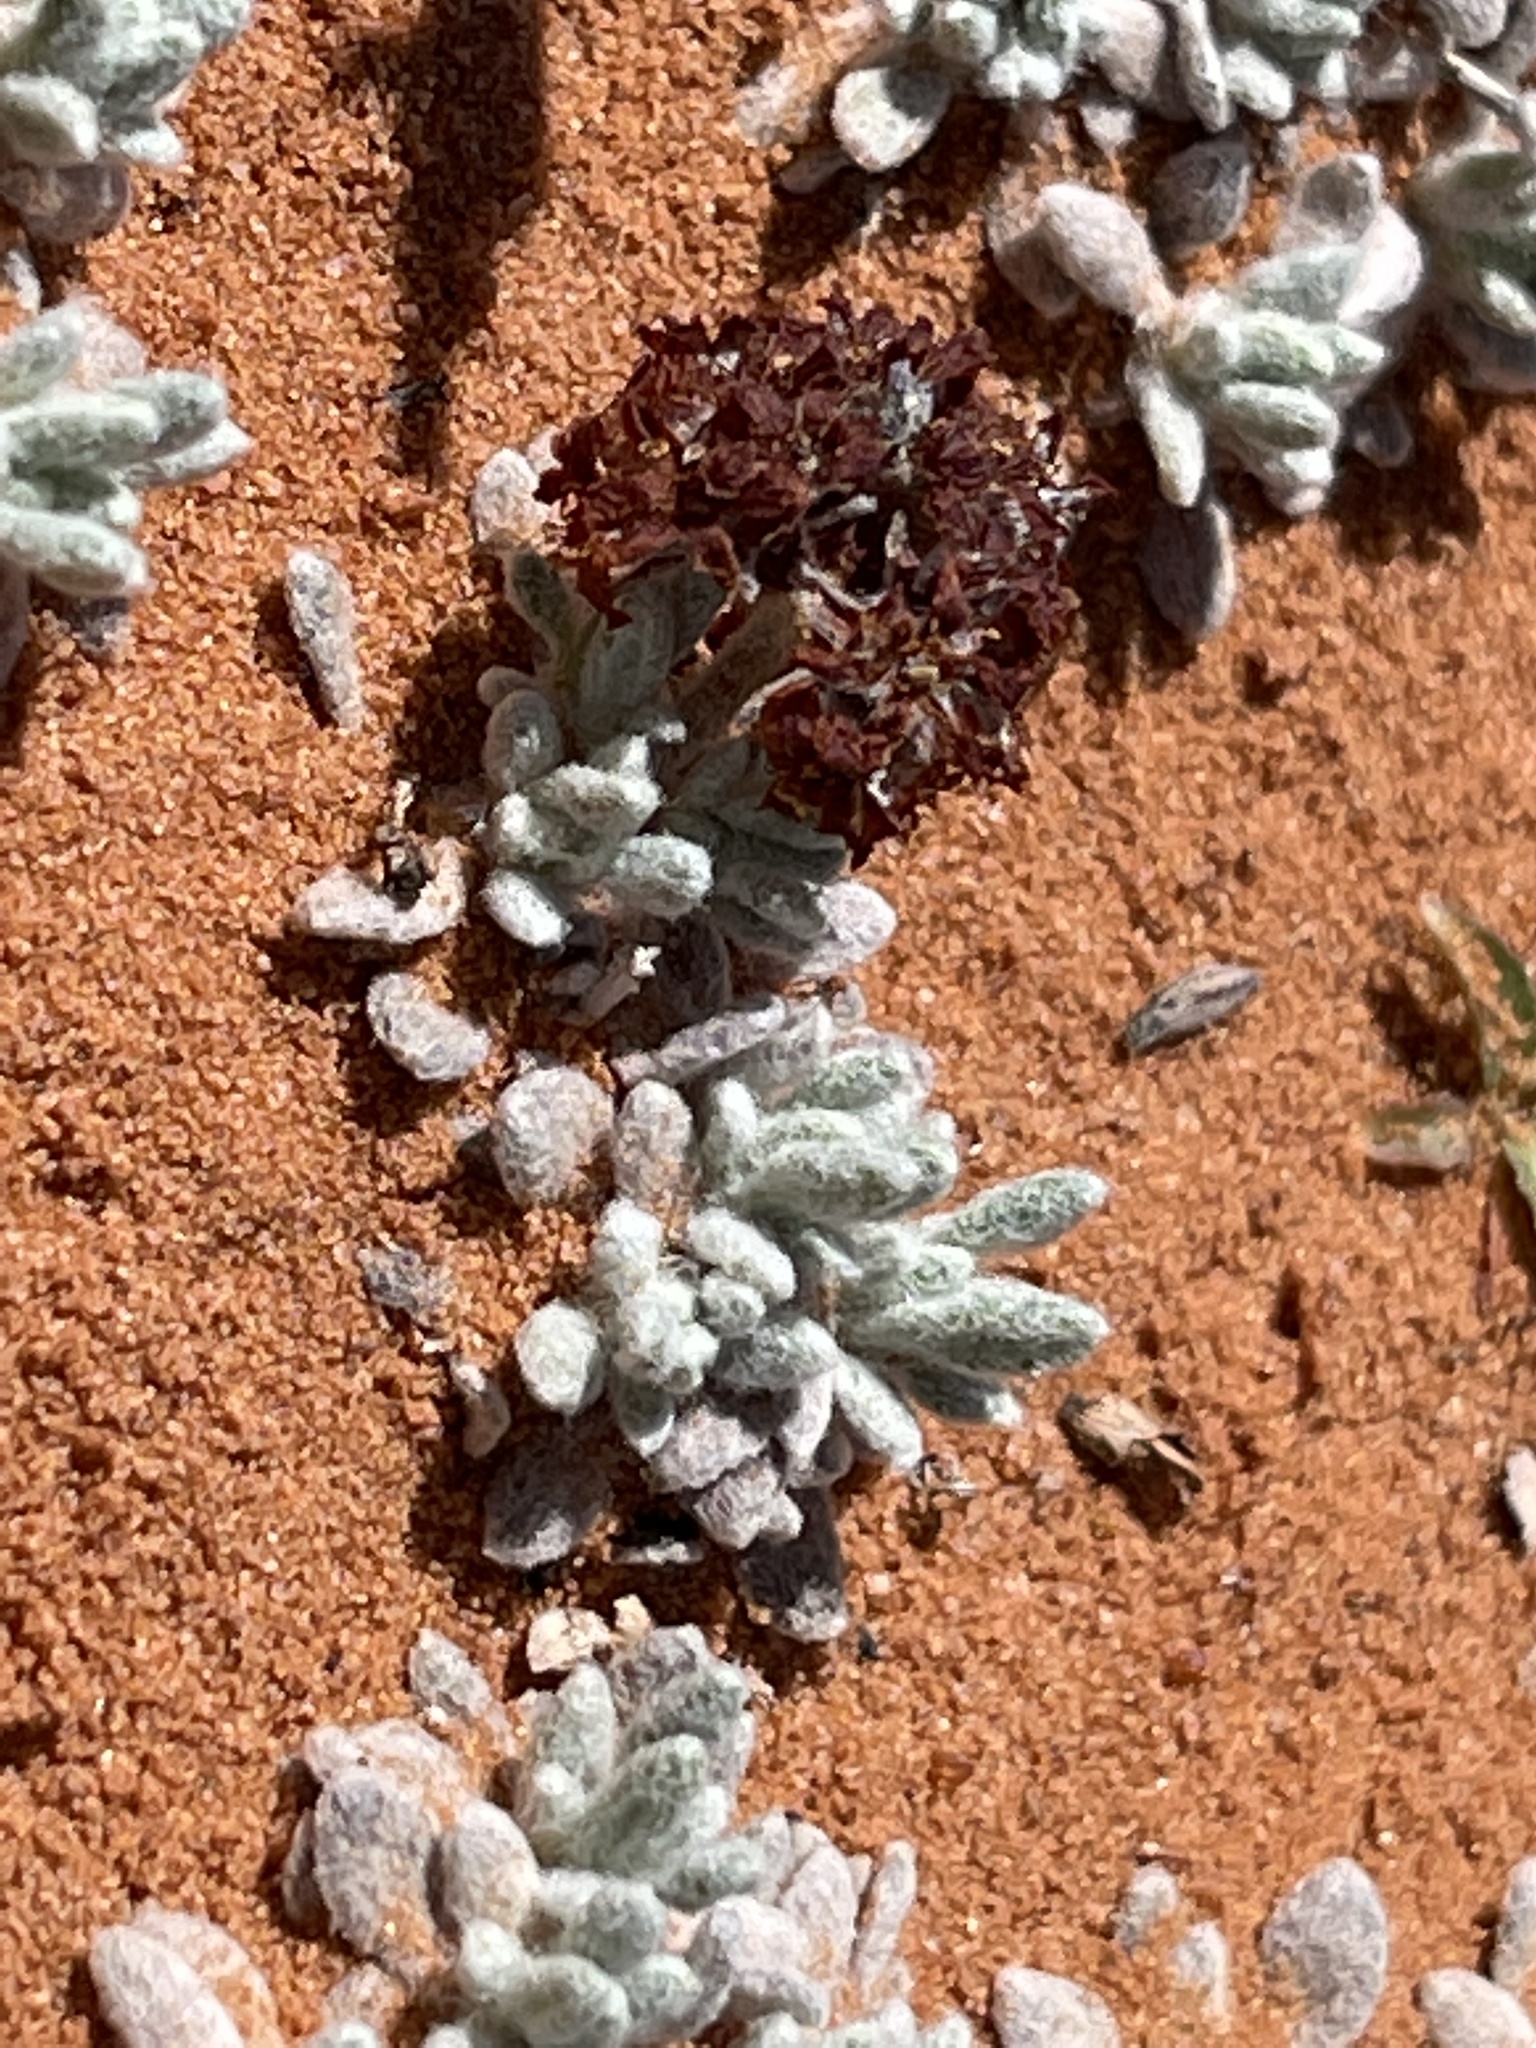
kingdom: Plantae
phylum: Tracheophyta
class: Magnoliopsida
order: Caryophyllales
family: Polygonaceae
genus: Eriogonum
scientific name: Eriogonum shockleyi
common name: Shockley's wild buckwheat
